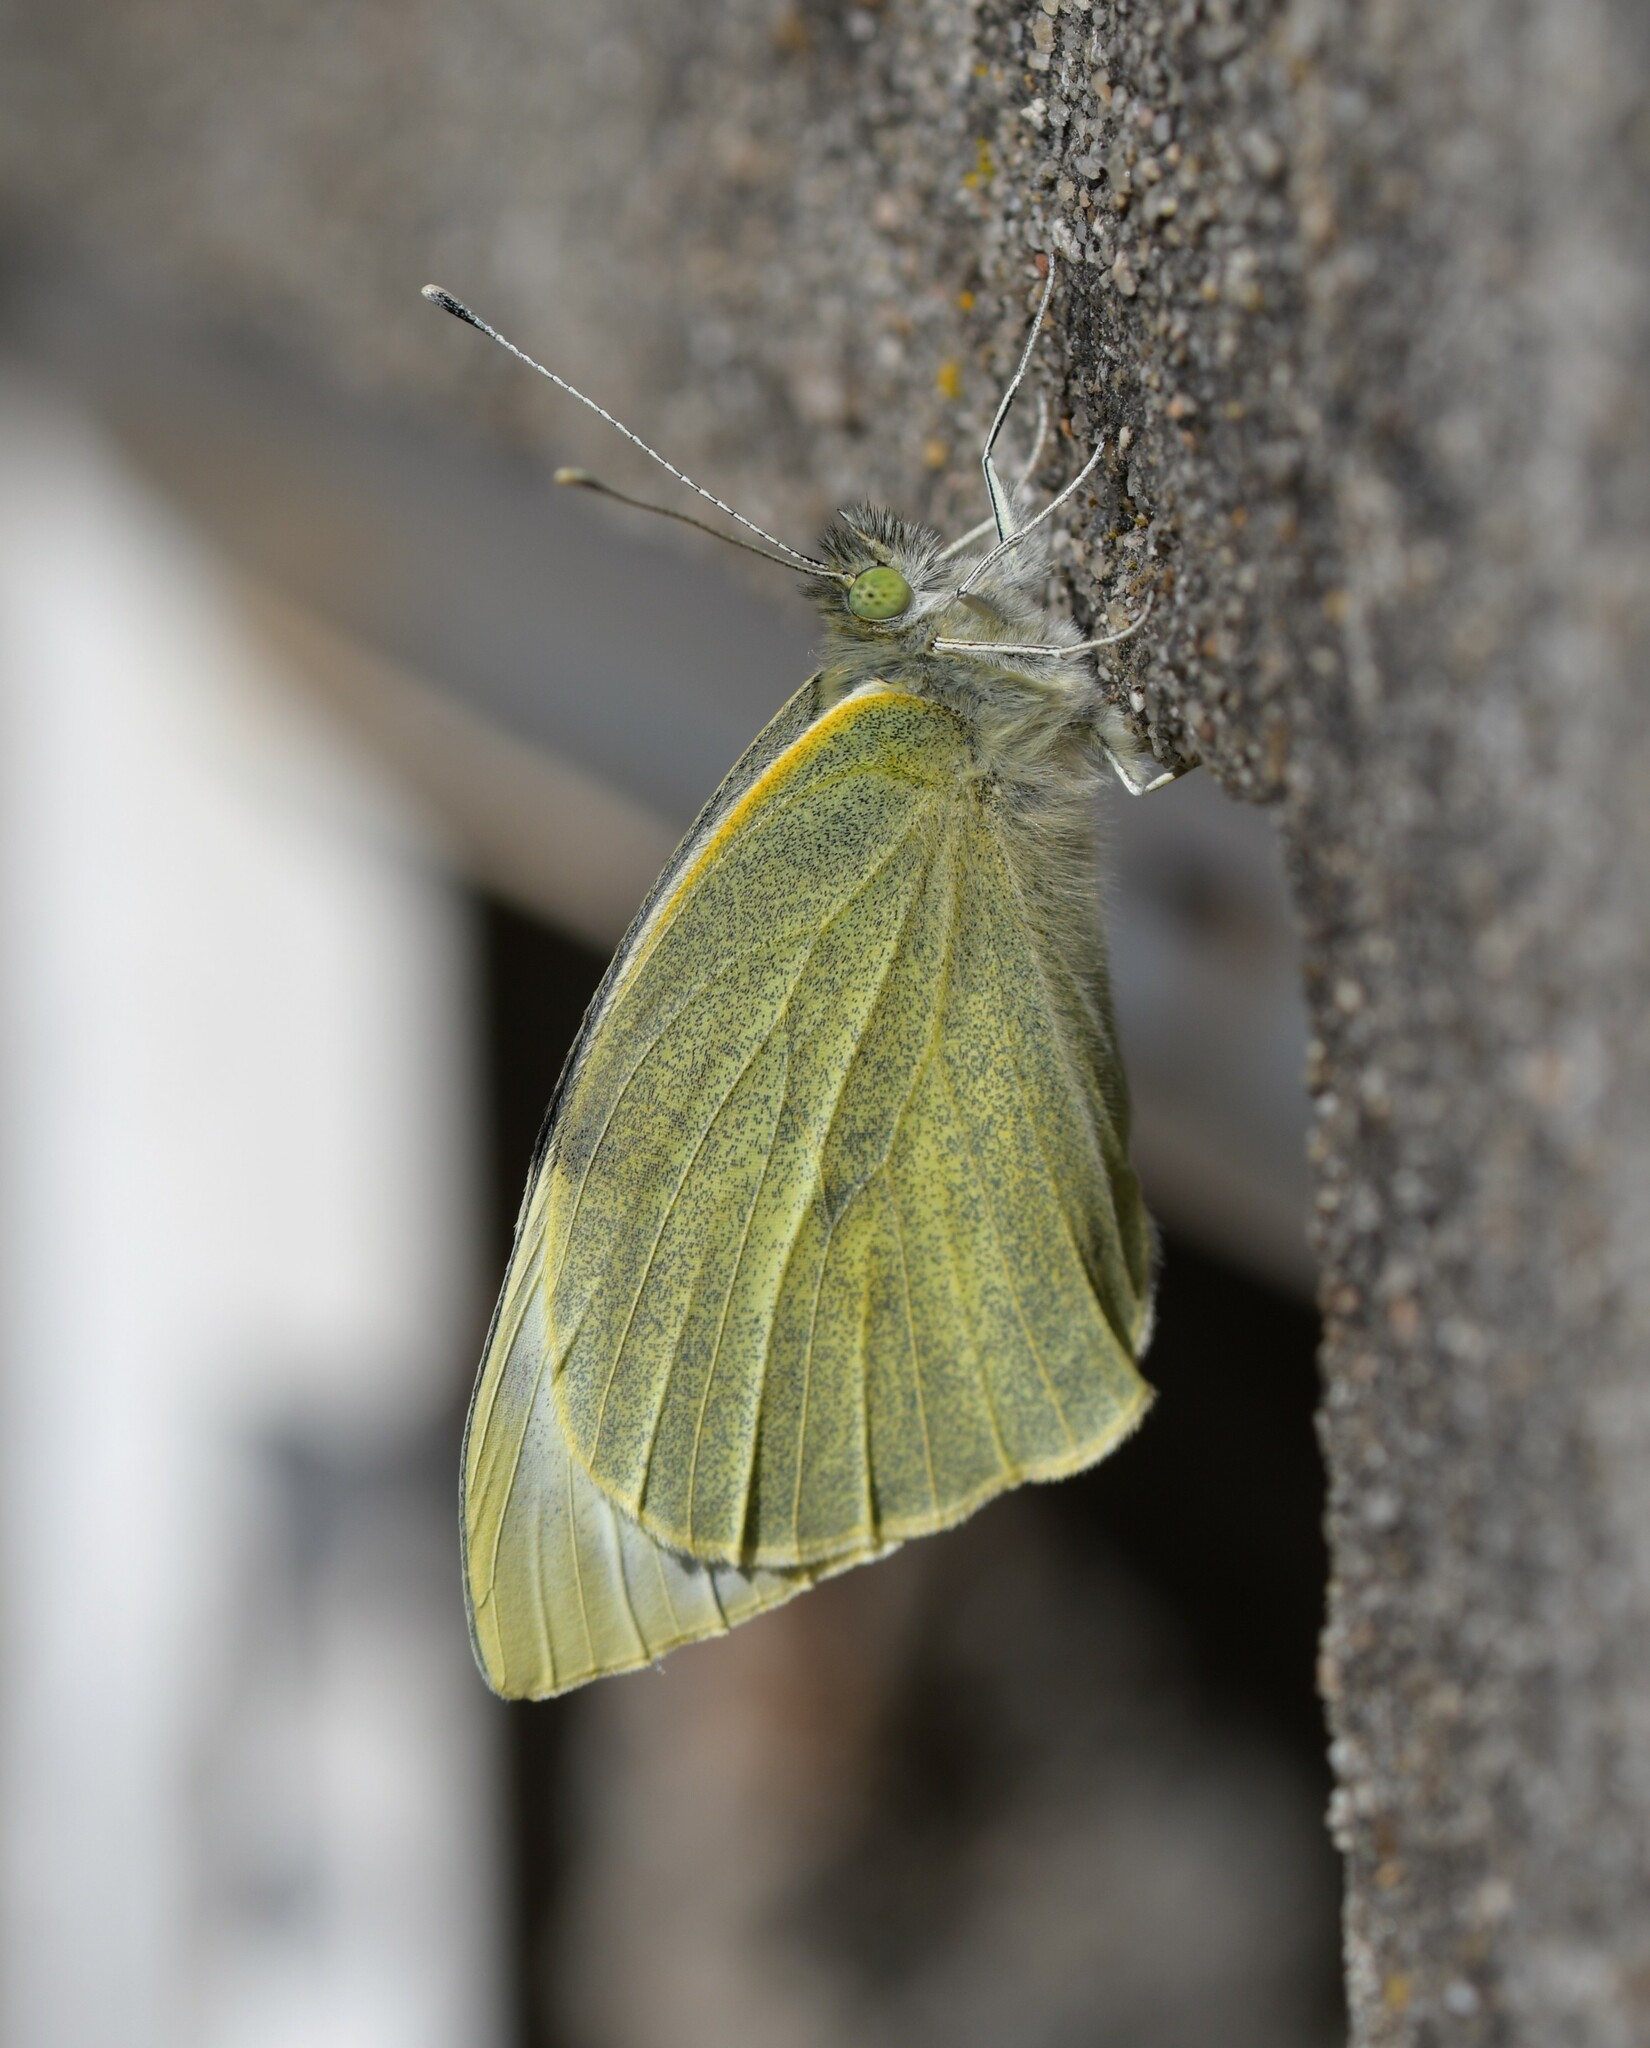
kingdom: Animalia
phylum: Arthropoda
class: Insecta
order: Lepidoptera
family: Pieridae
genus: Pieris
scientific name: Pieris brassicae
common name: Large white
